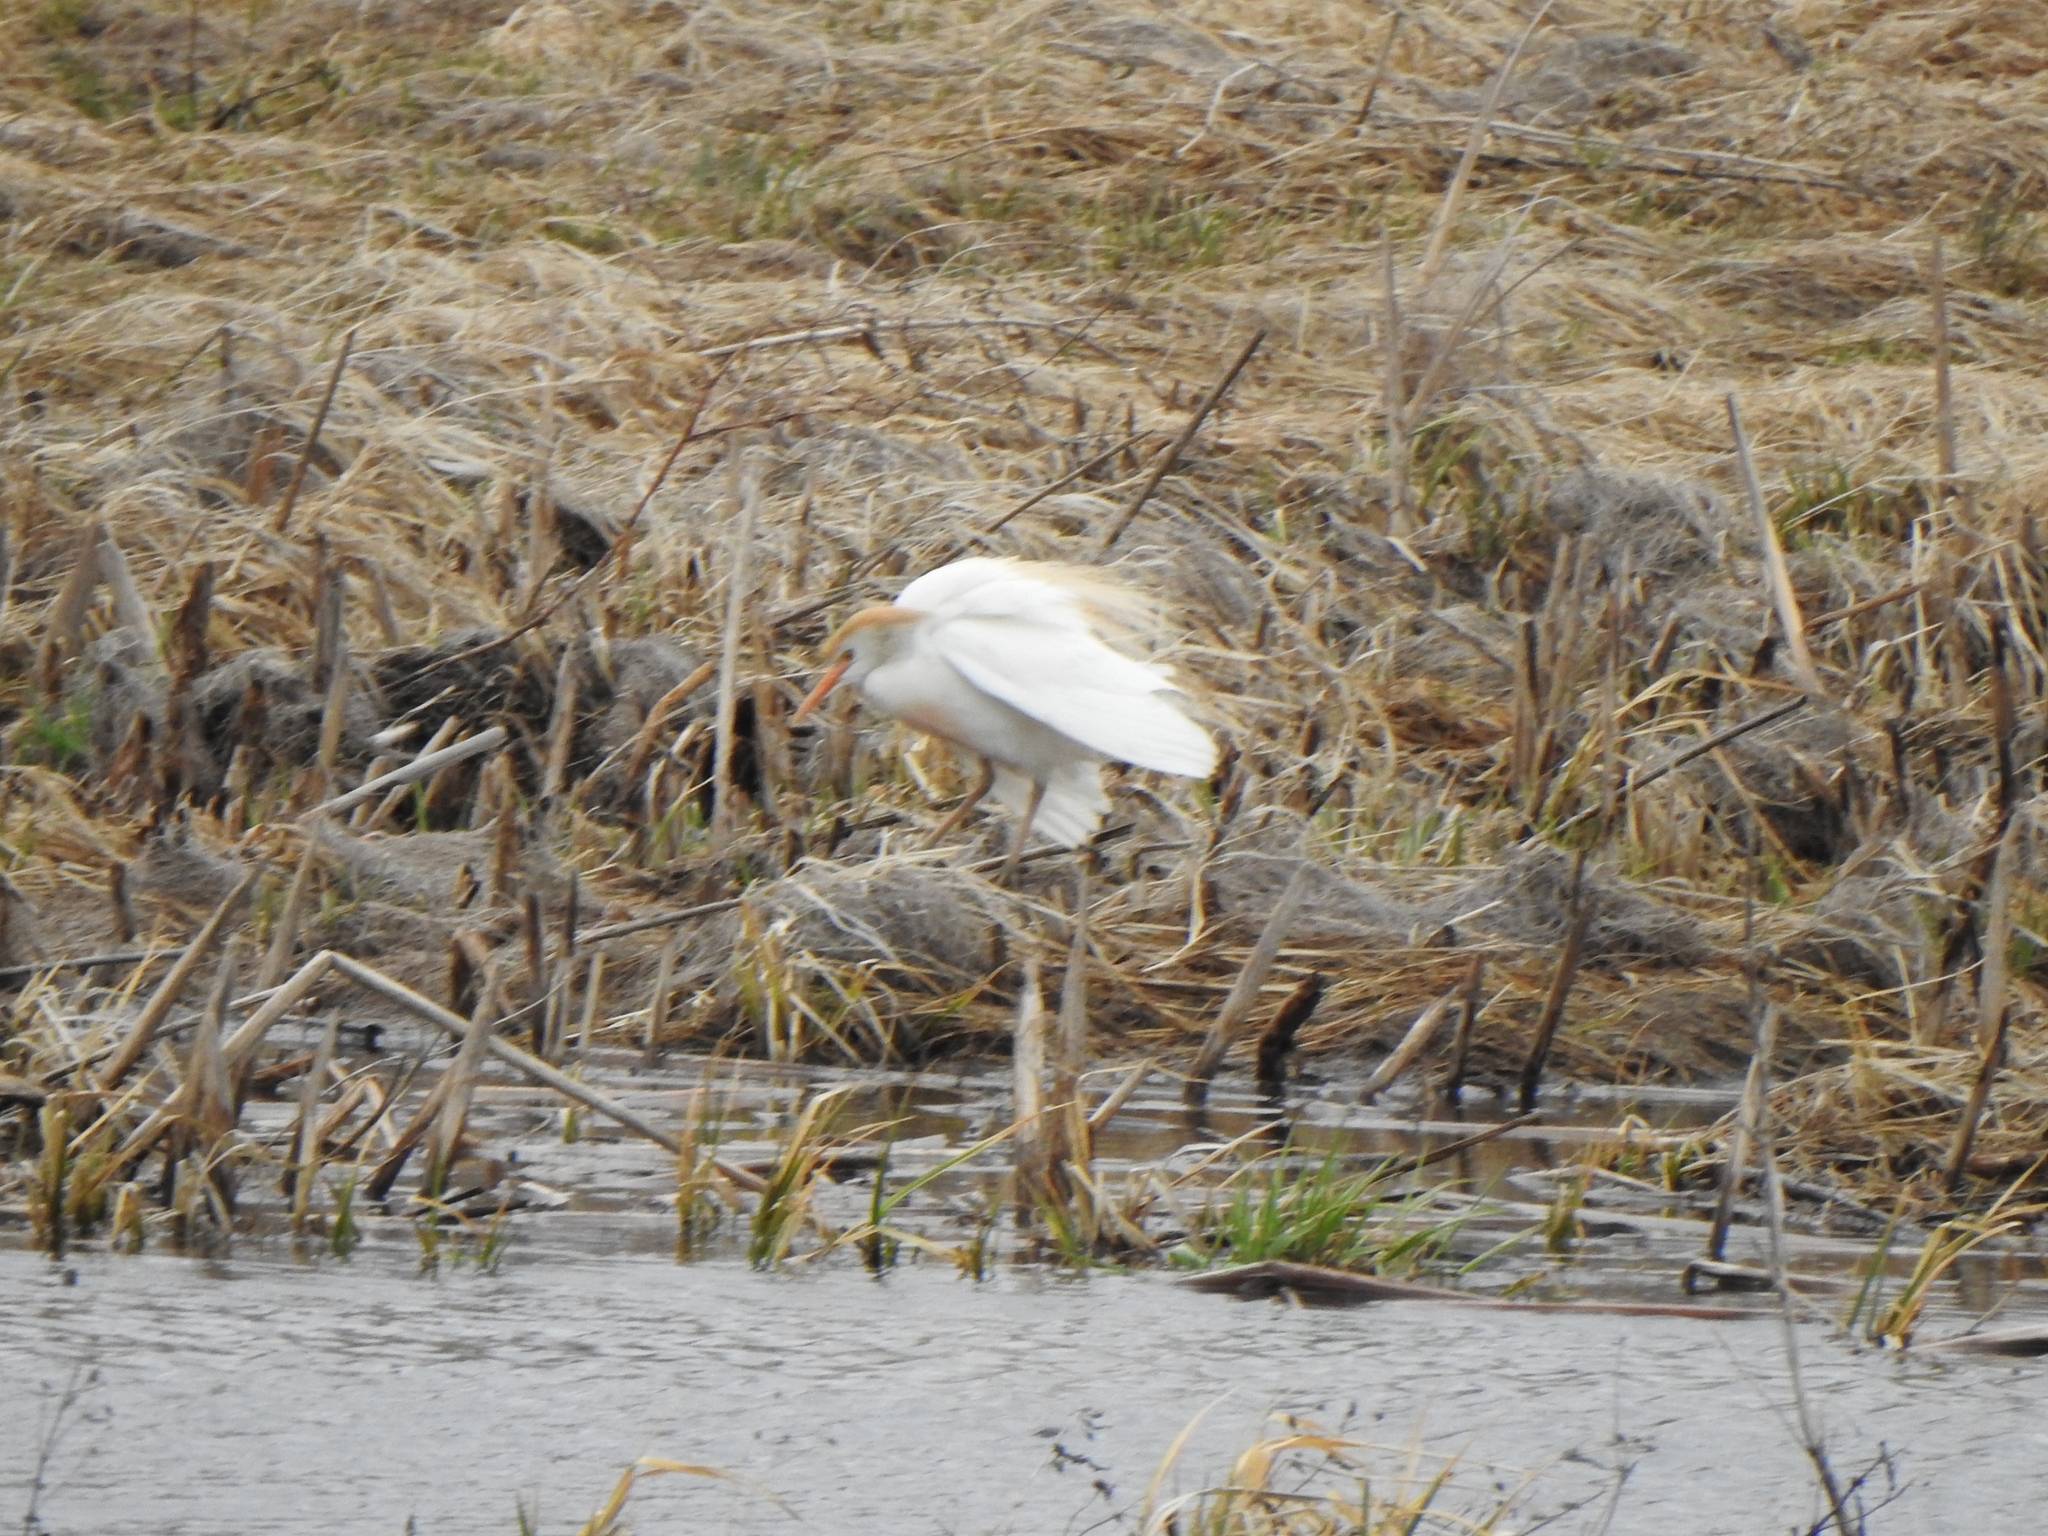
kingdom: Animalia
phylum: Chordata
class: Aves
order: Pelecaniformes
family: Ardeidae
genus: Bubulcus
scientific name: Bubulcus ibis
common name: Cattle egret
